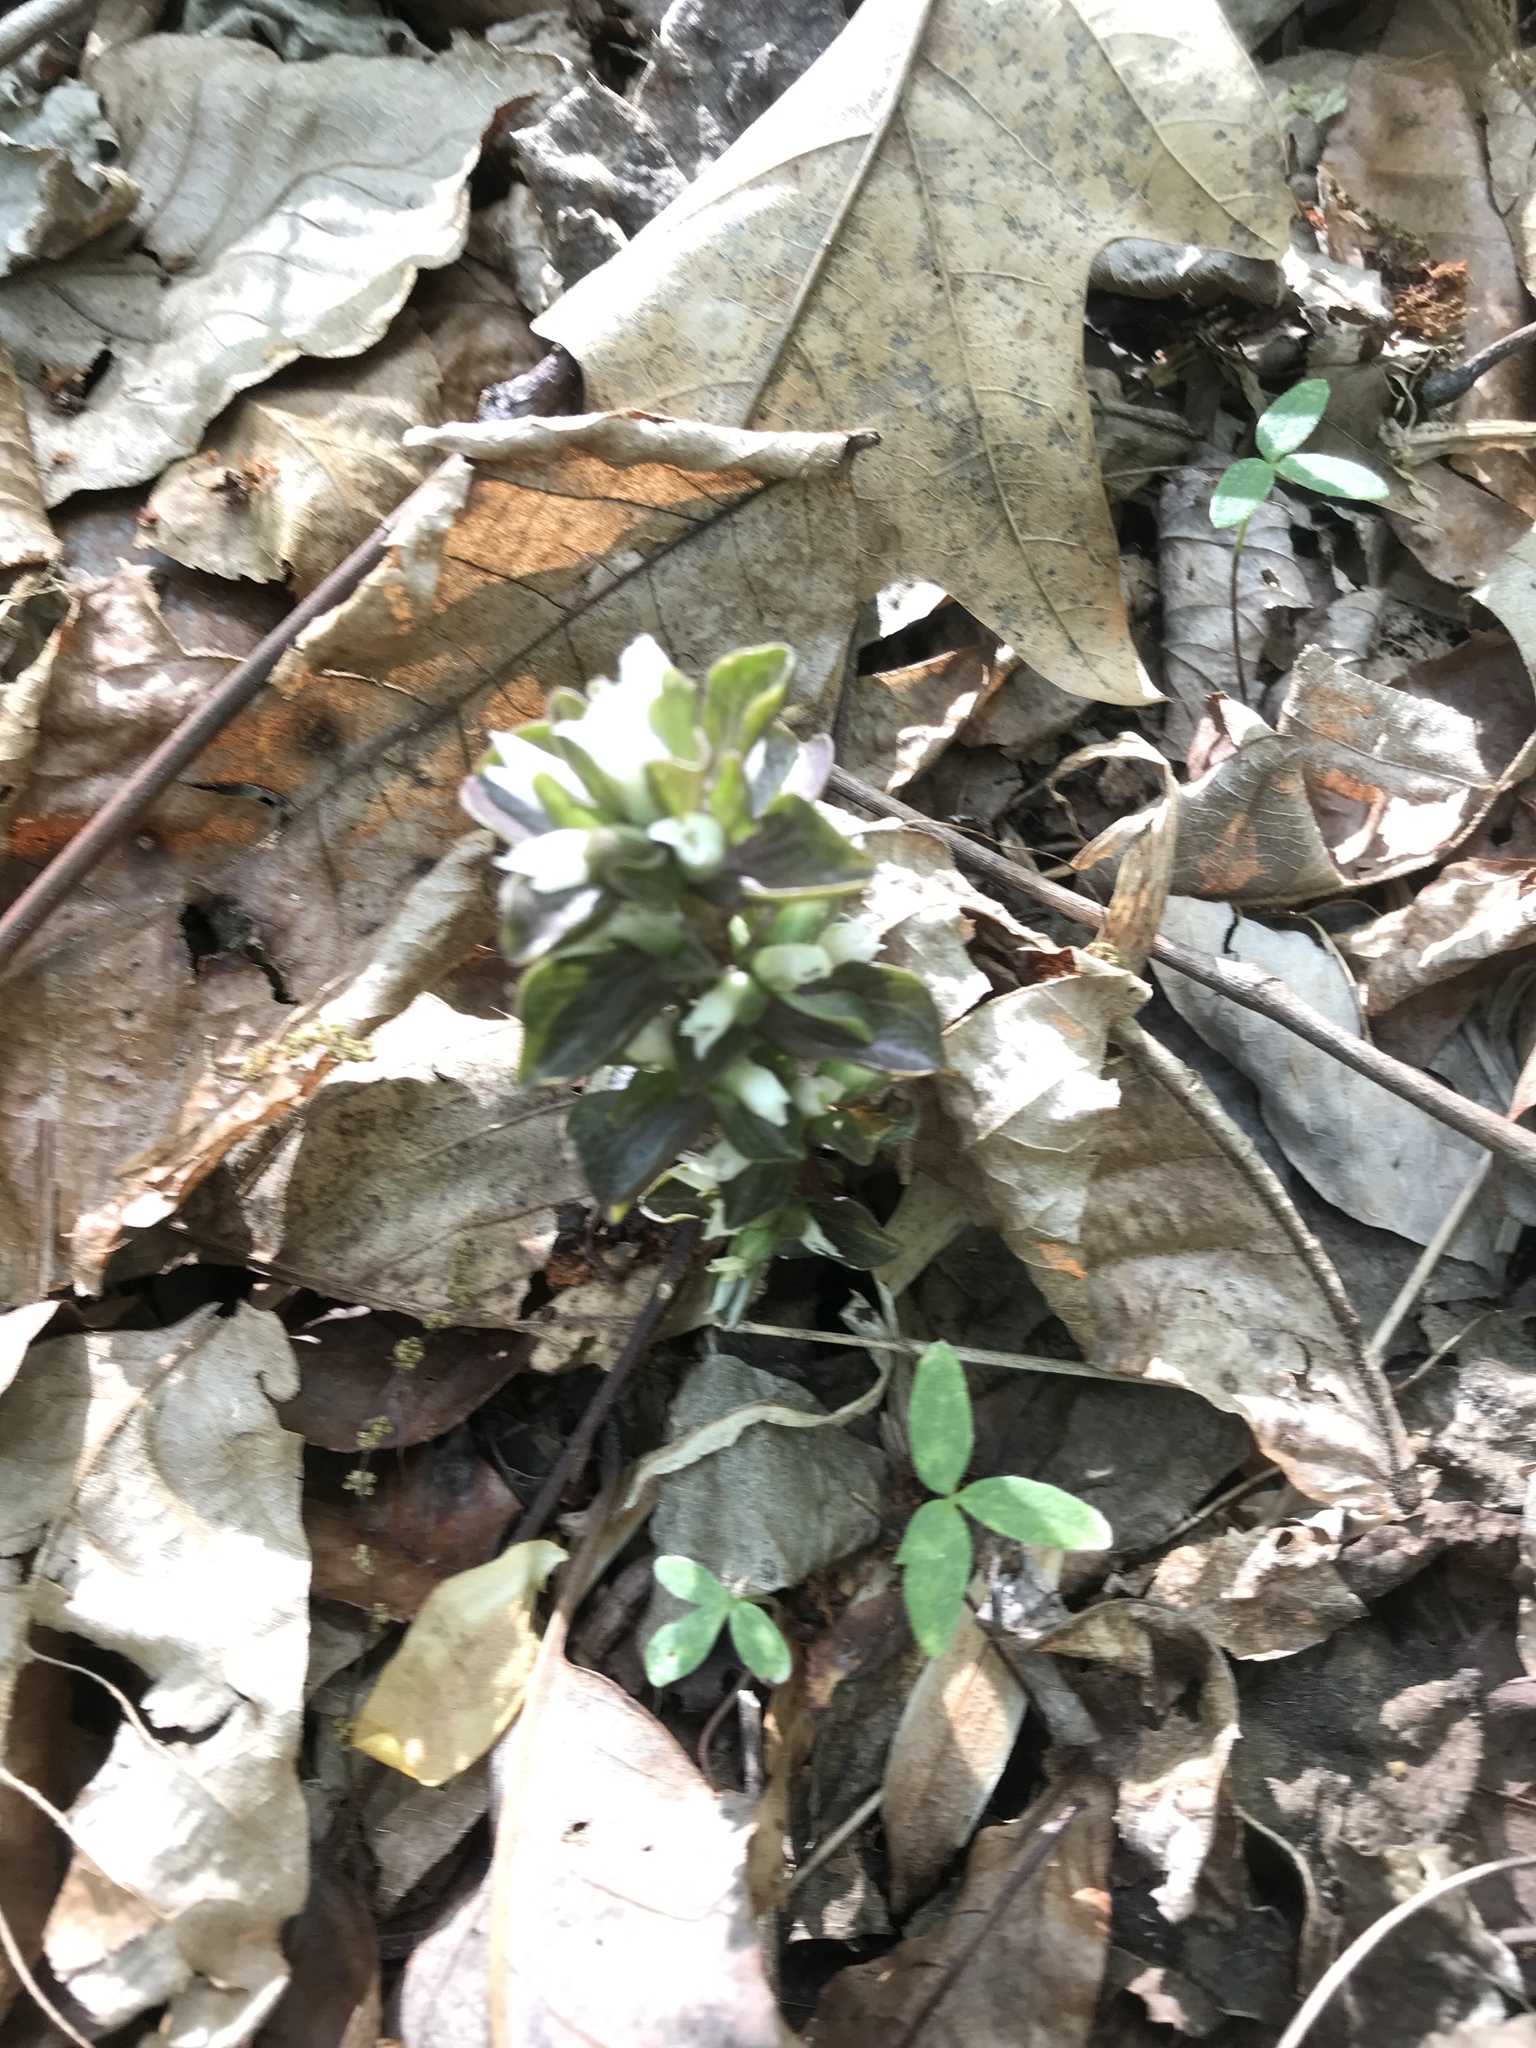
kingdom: Plantae
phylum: Tracheophyta
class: Magnoliopsida
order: Gentianales
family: Gentianaceae
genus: Obolaria
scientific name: Obolaria virginica
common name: Pennywort
